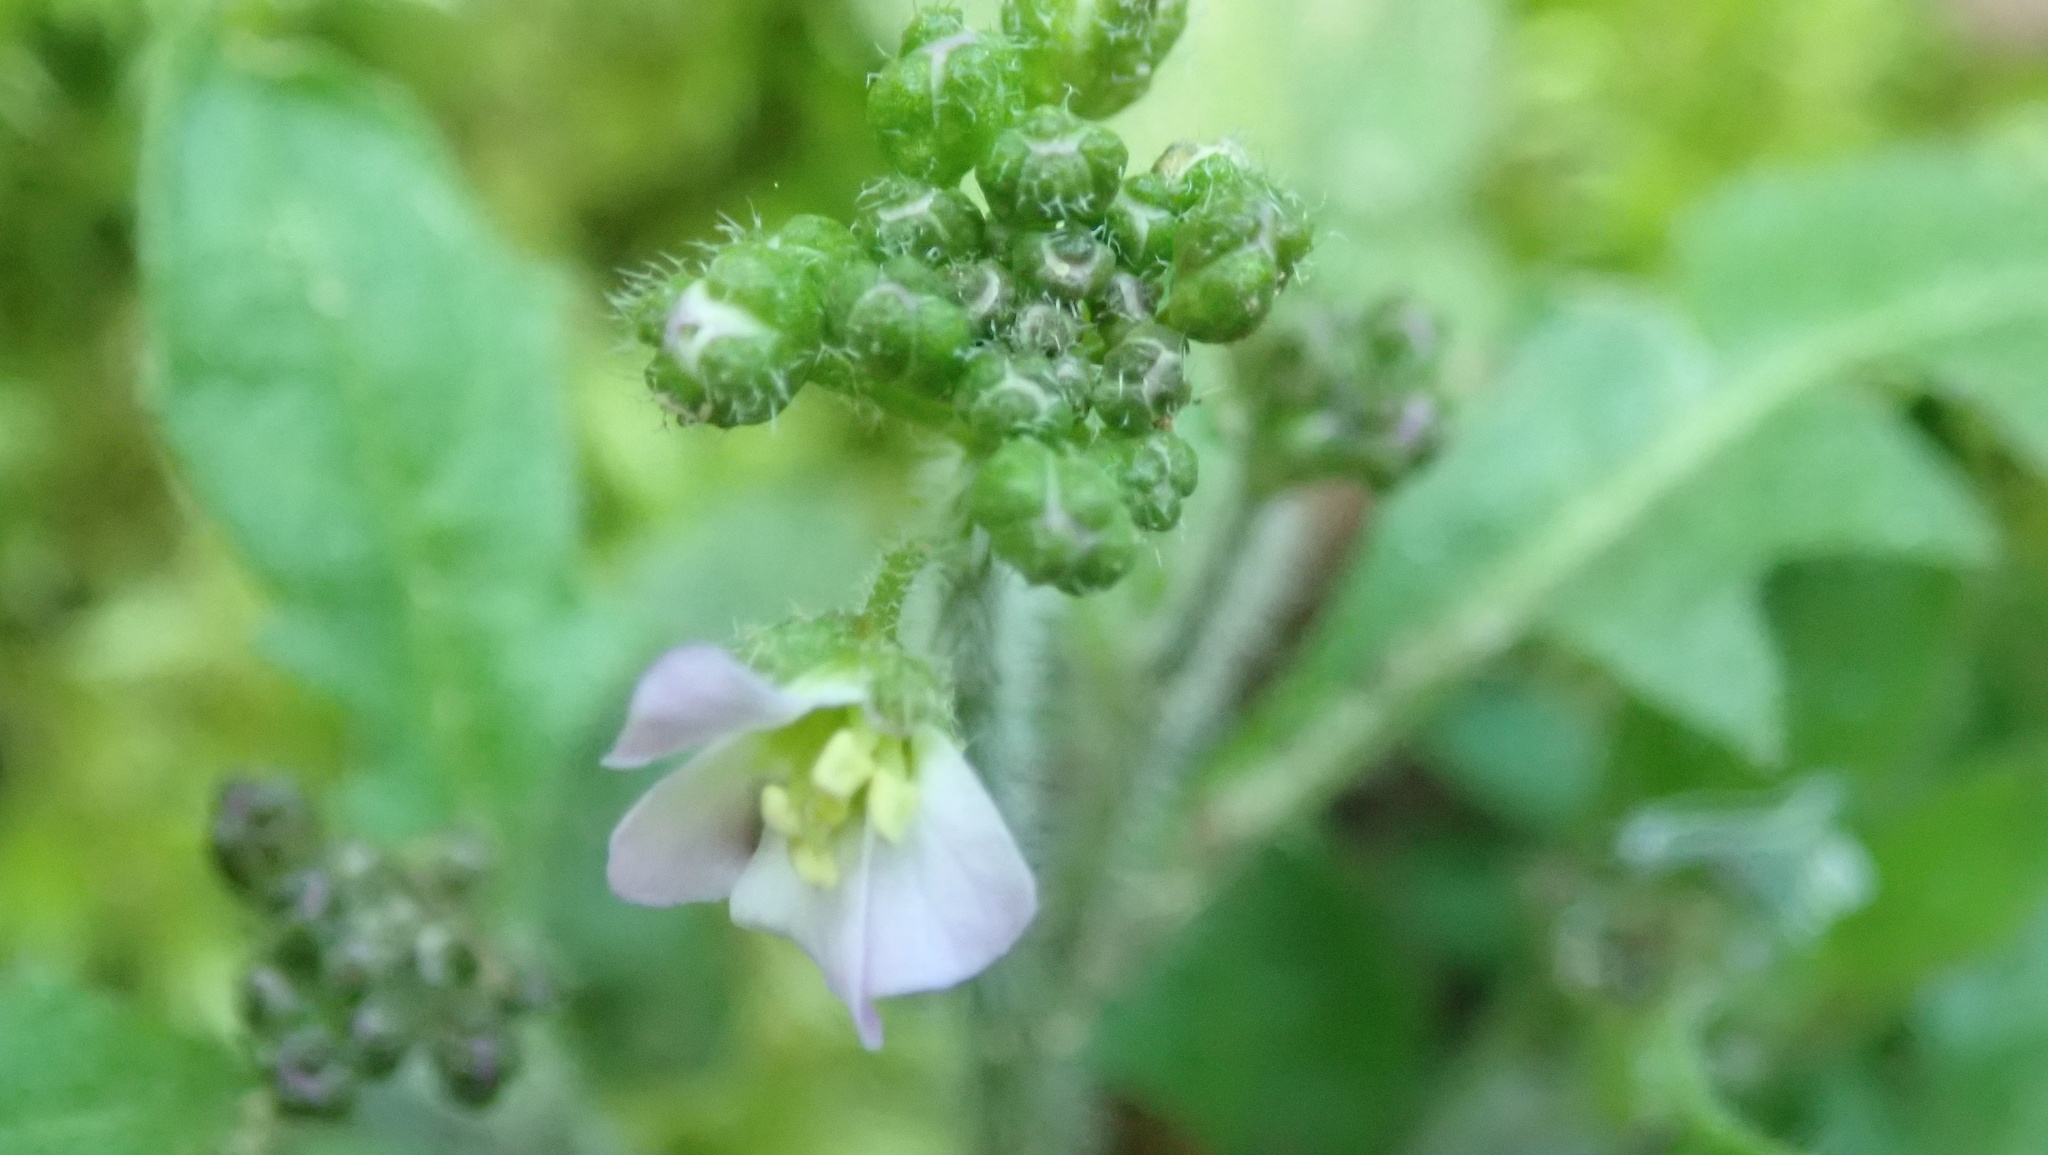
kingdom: Plantae
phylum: Tracheophyta
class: Magnoliopsida
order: Brassicales
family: Brassicaceae
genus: Arabidopsis
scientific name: Arabidopsis arenosa
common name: Sand rock-cress
